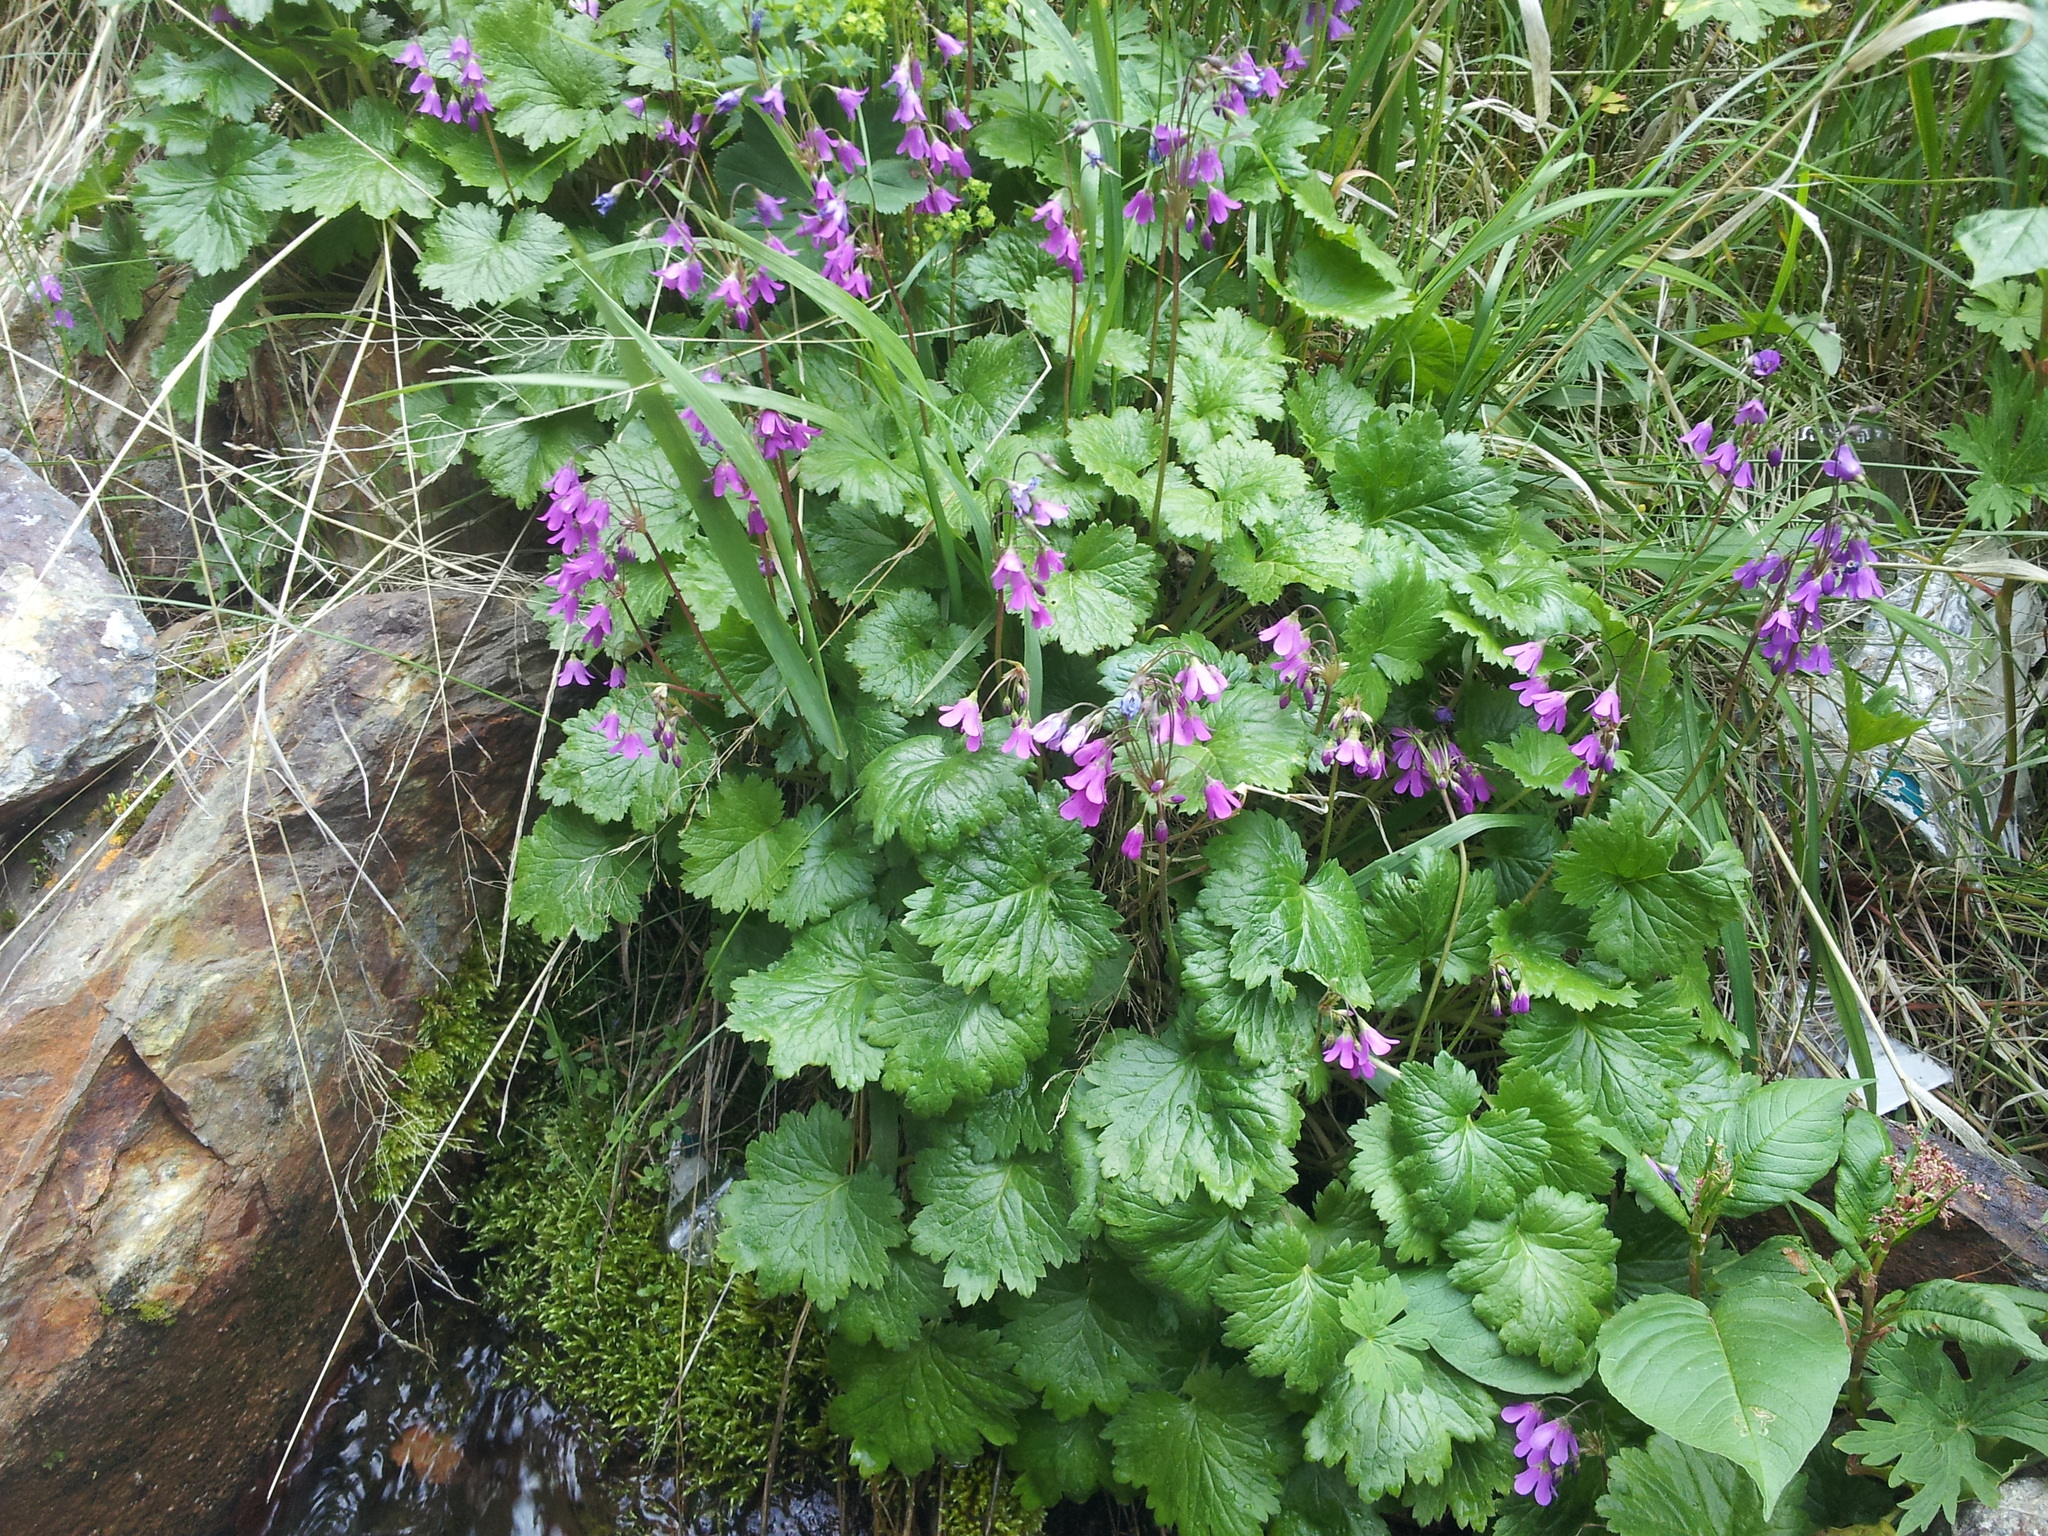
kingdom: Plantae
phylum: Tracheophyta
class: Magnoliopsida
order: Ericales
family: Primulaceae
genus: Primula
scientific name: Primula matthioli
